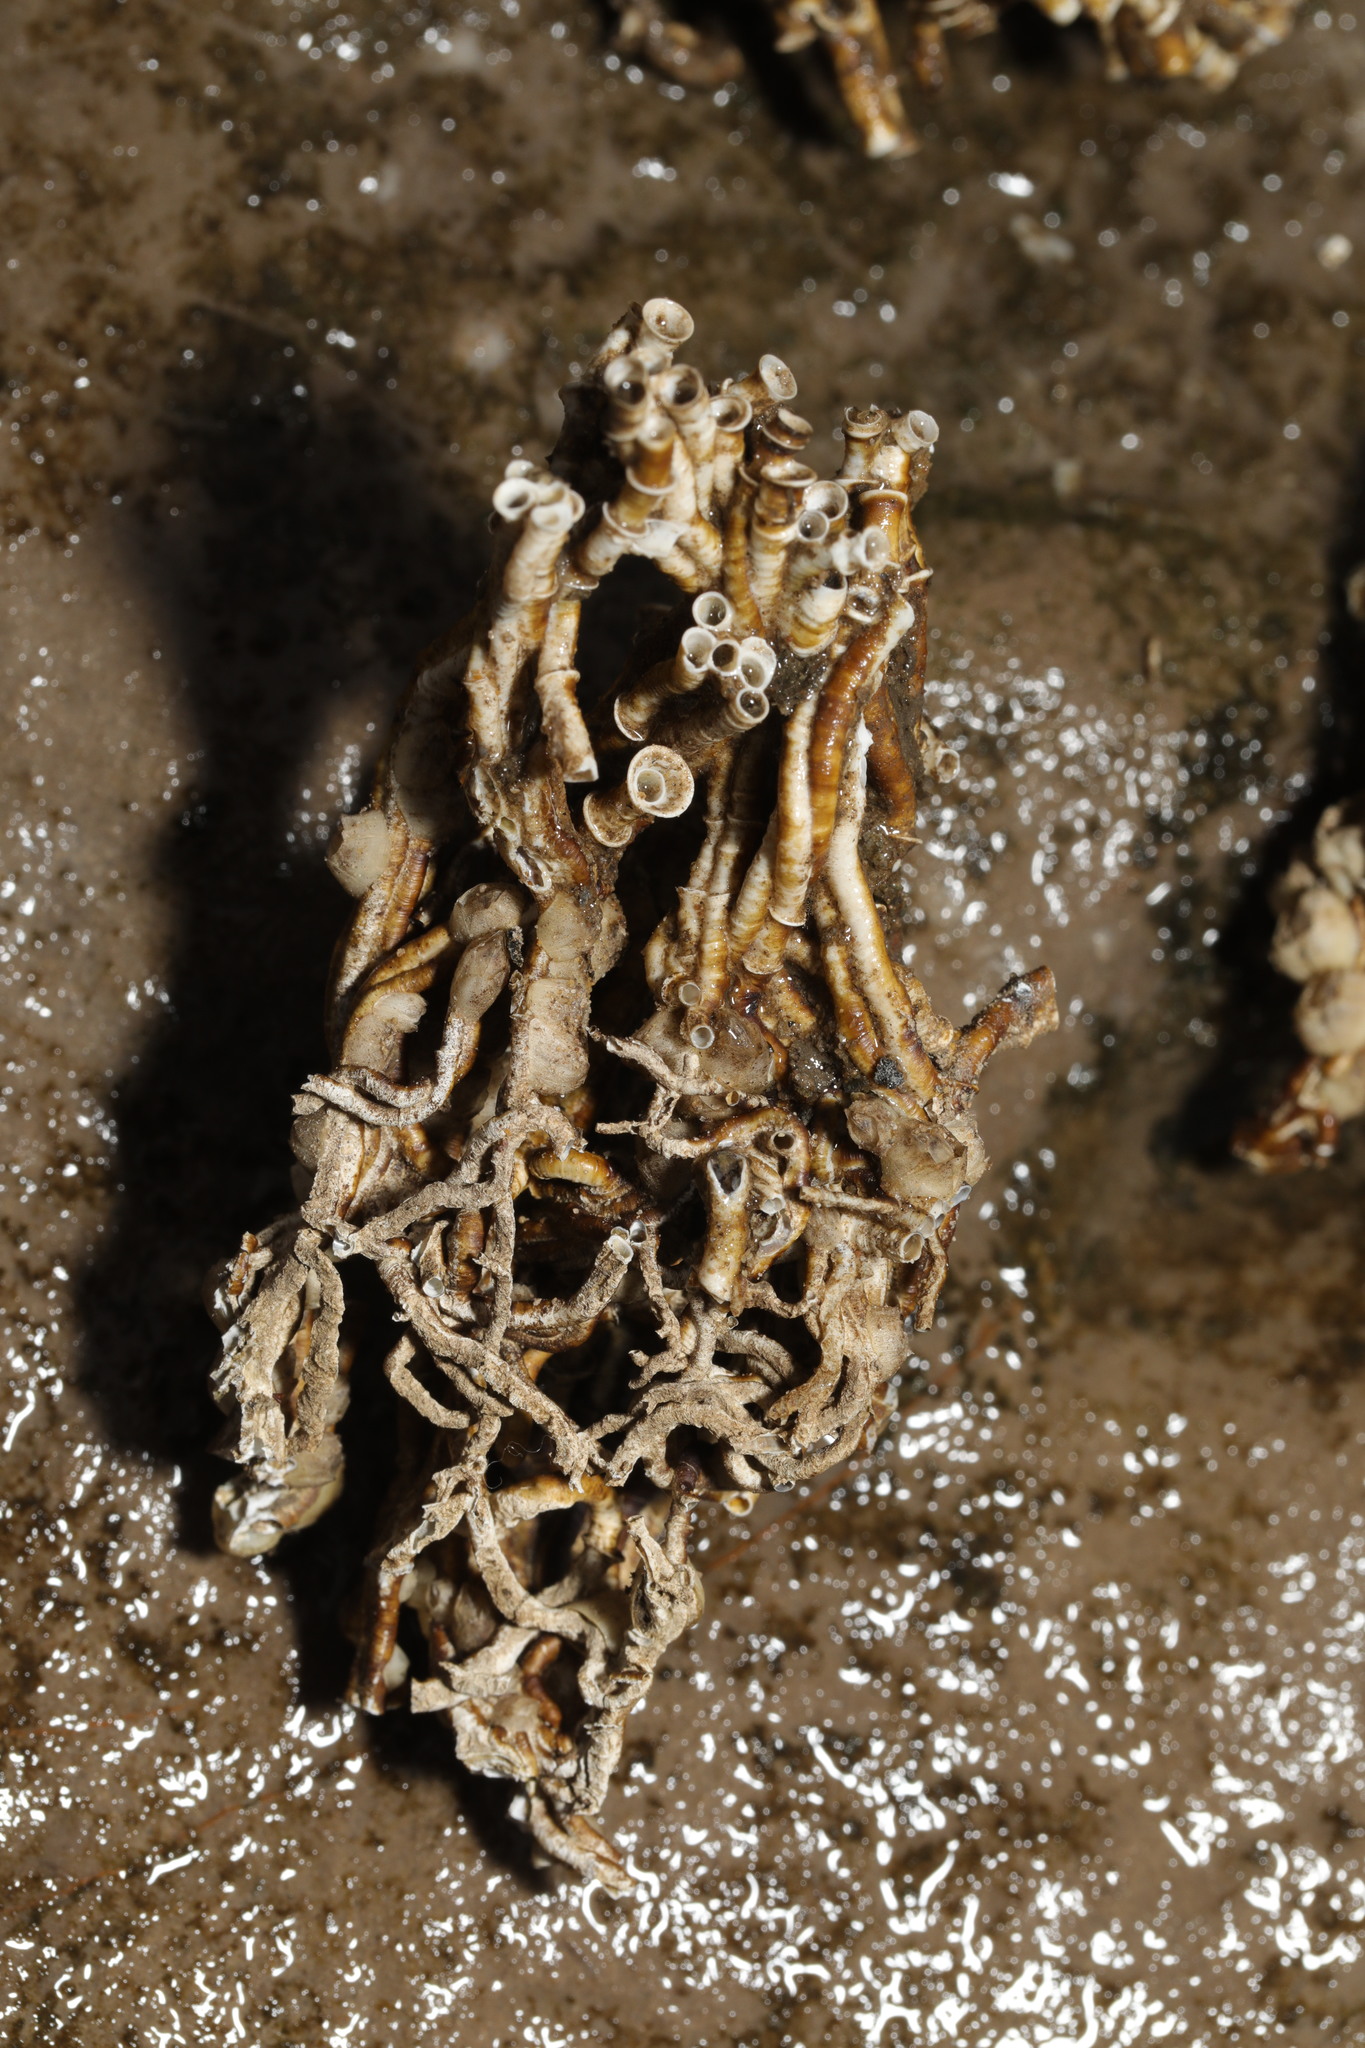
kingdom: Animalia
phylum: Annelida
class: Polychaeta
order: Sabellida
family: Serpulidae
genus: Ficopomatus
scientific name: Ficopomatus enigmaticus
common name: Australian tubeworm
